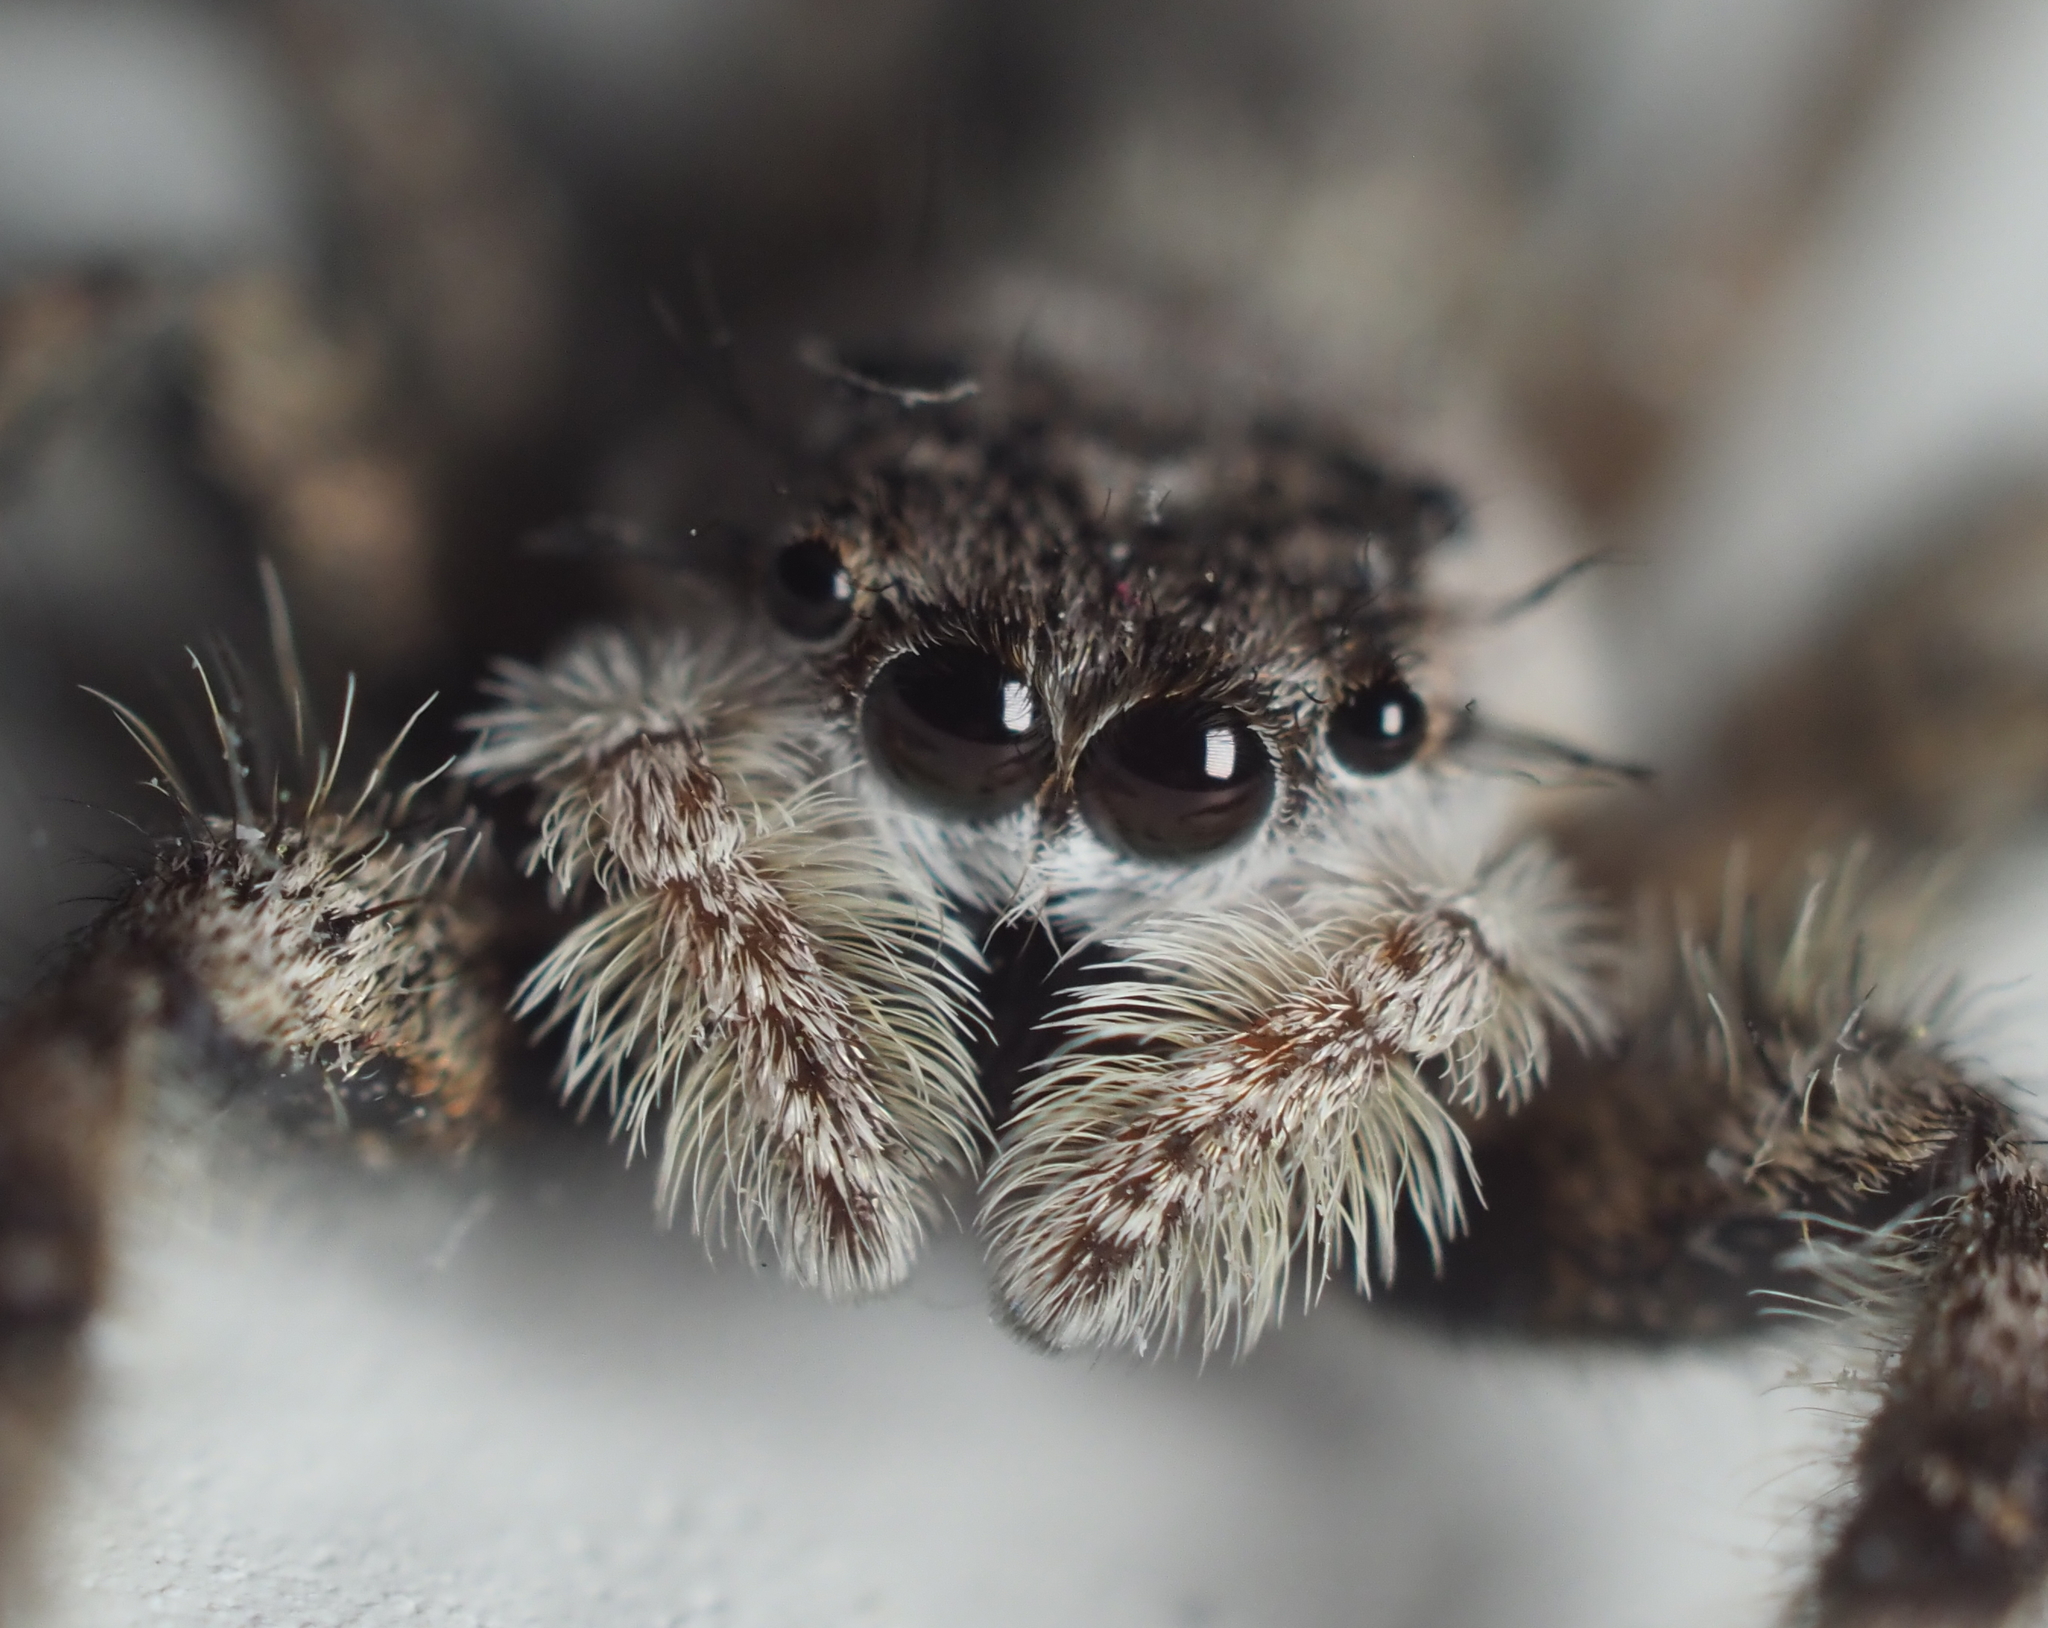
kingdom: Animalia
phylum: Arthropoda
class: Arachnida
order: Araneae
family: Salticidae
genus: Platycryptus
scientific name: Platycryptus undatus
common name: Tan jumping spider
